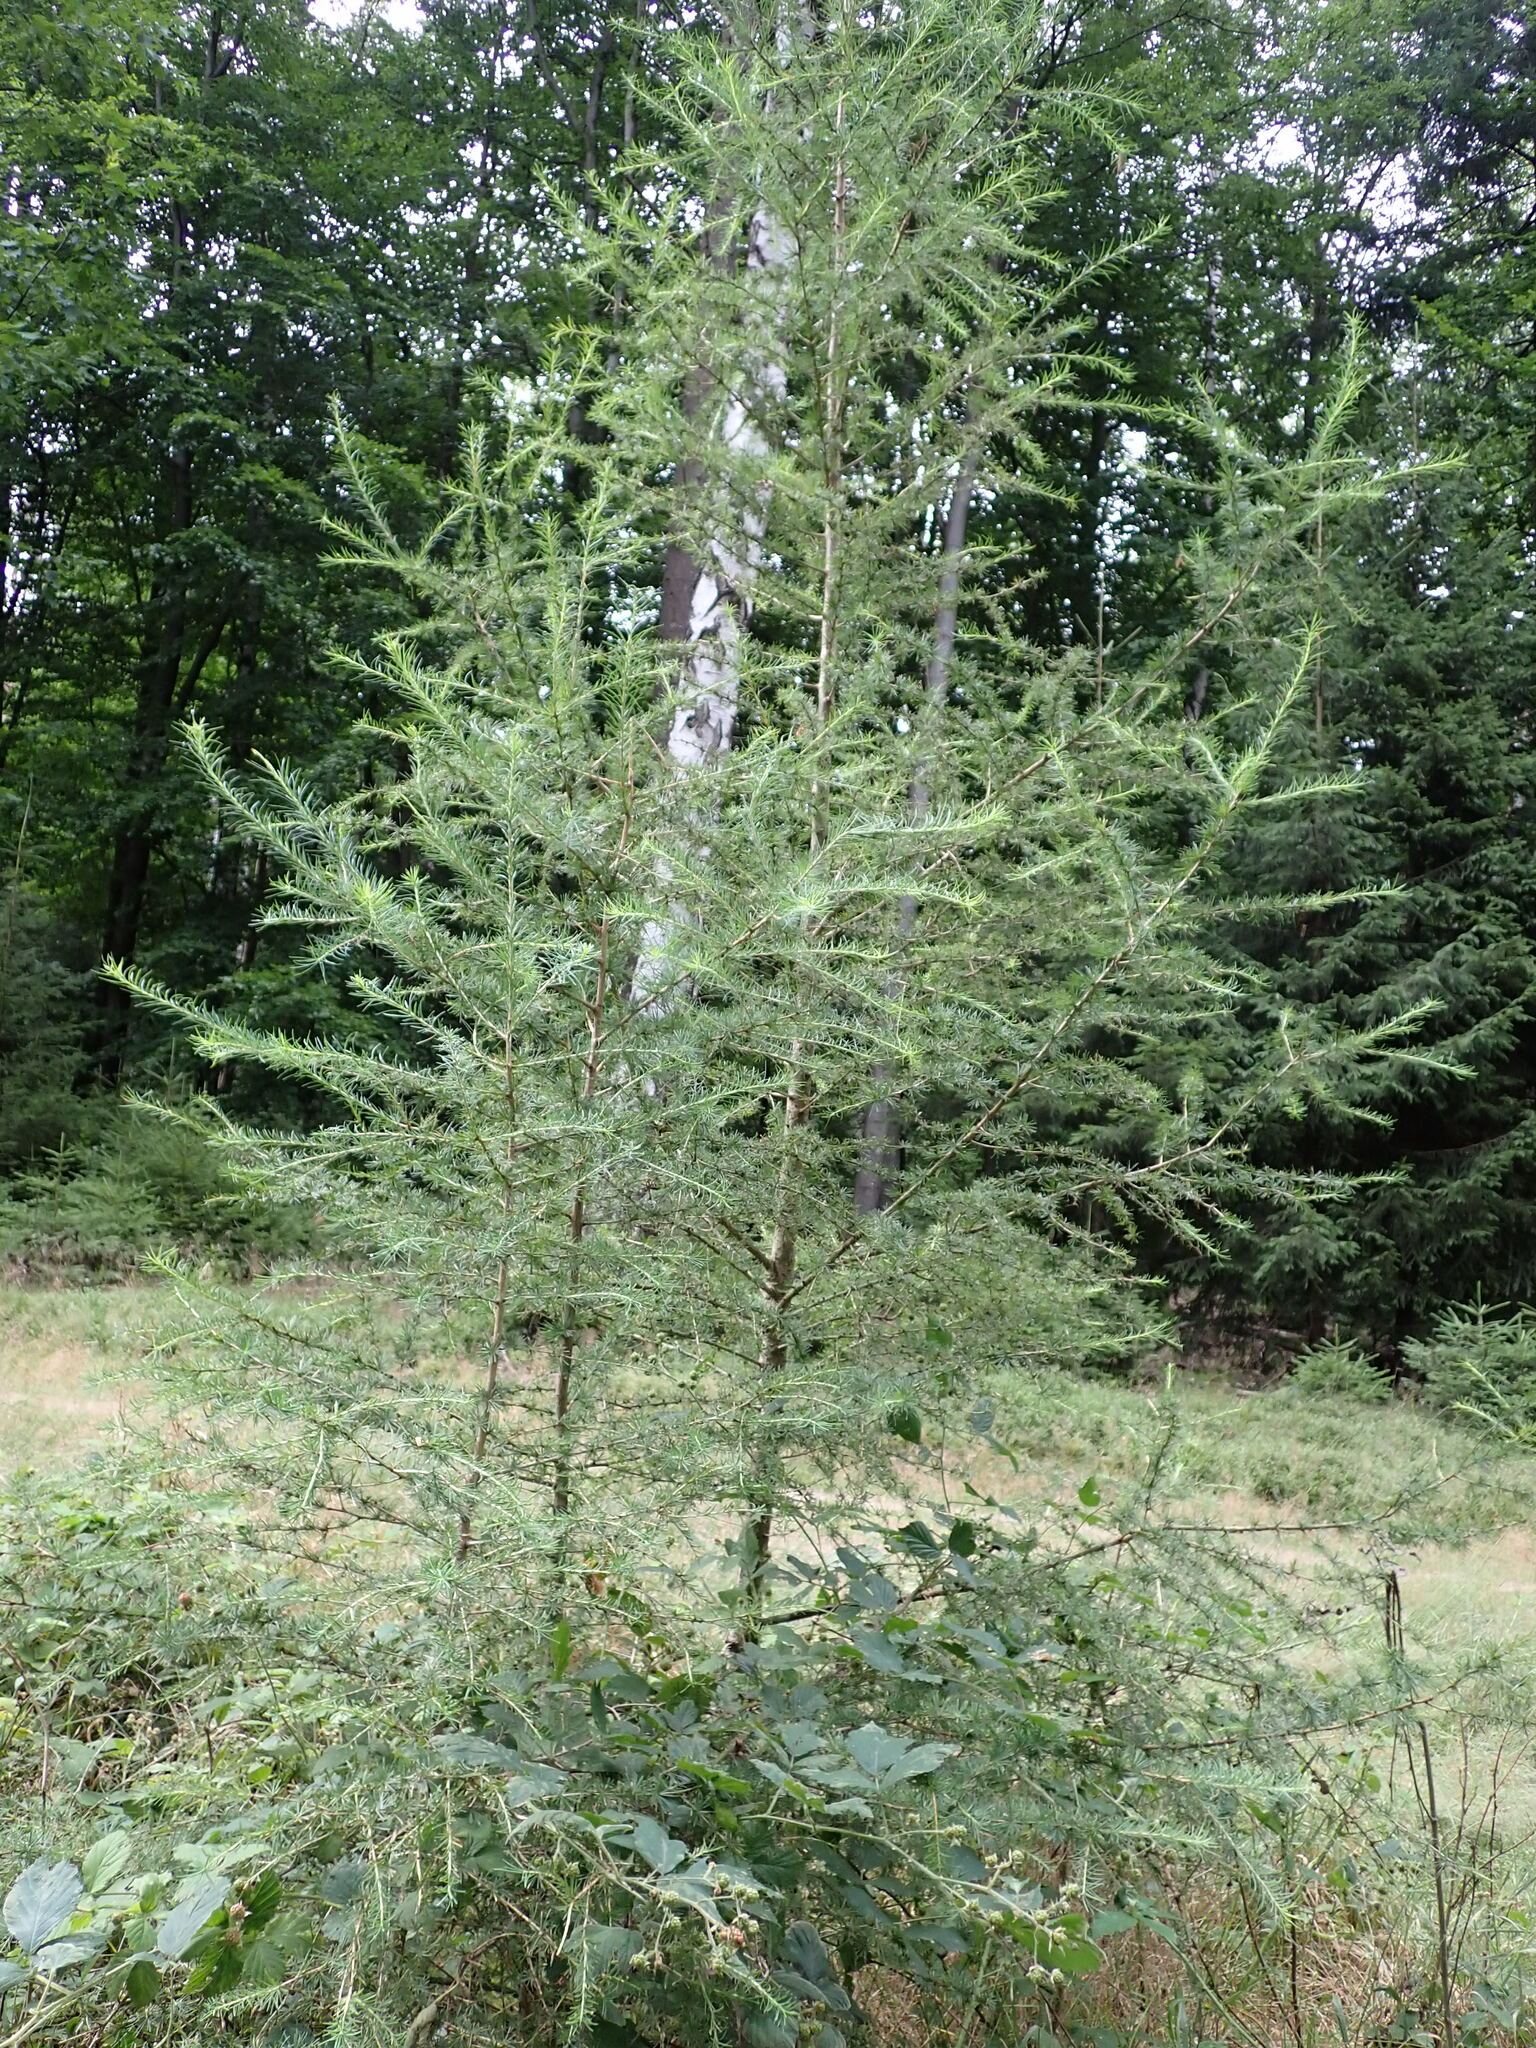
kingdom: Plantae
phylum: Tracheophyta
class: Pinopsida
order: Pinales
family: Pinaceae
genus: Larix
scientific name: Larix decidua
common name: European larch
